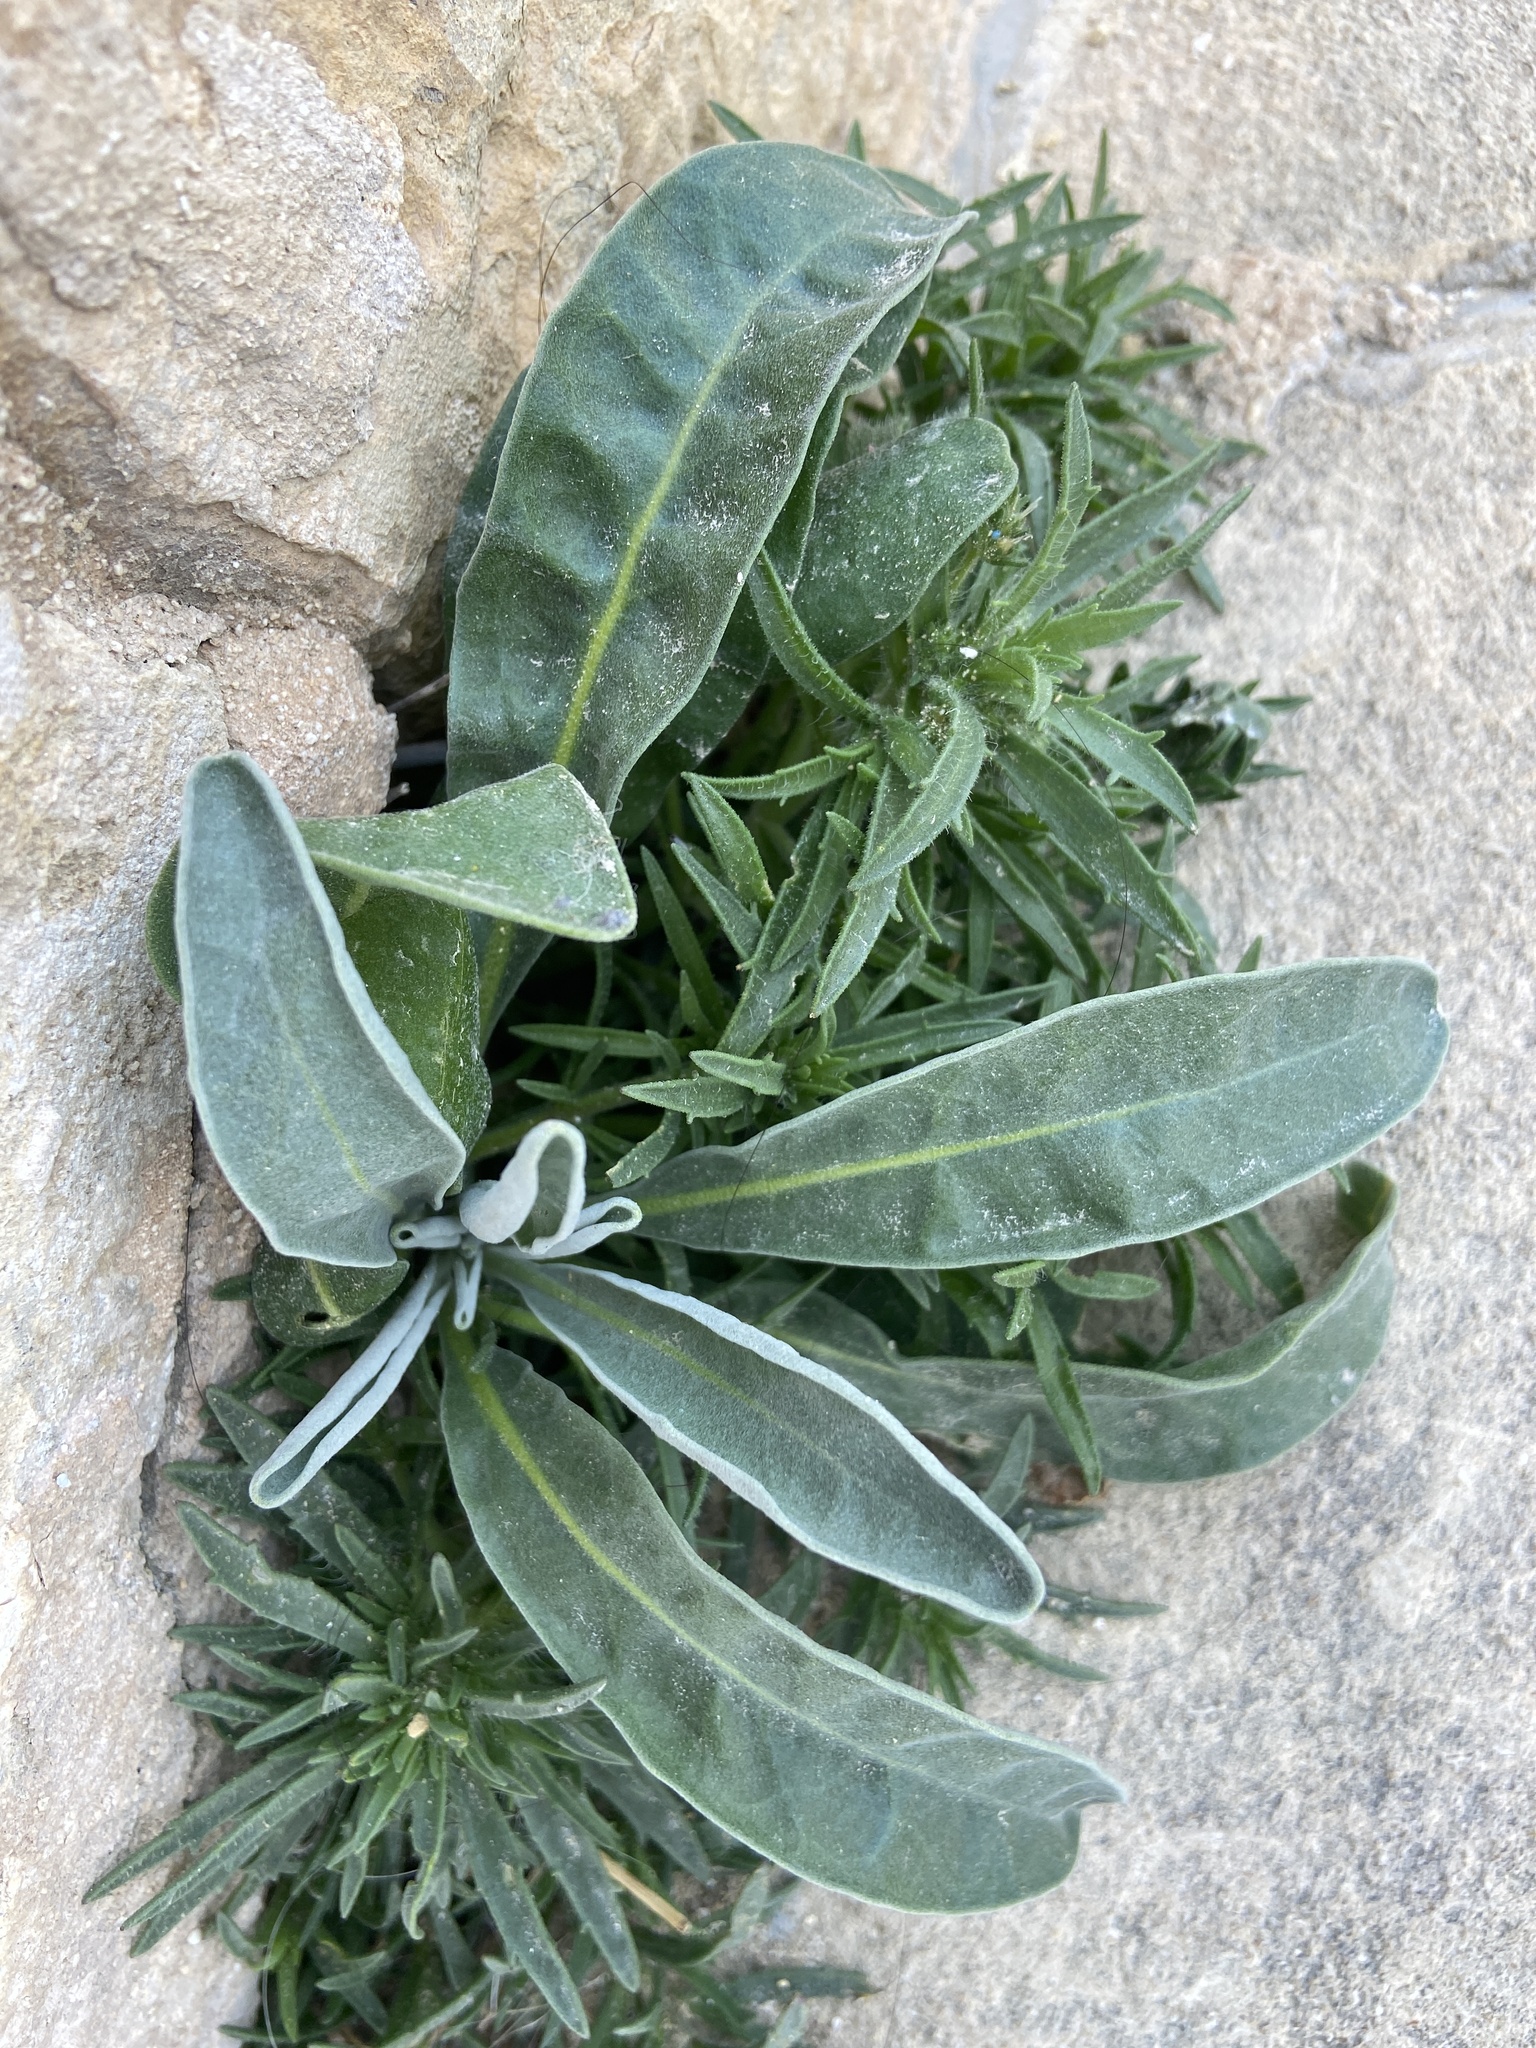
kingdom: Plantae
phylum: Tracheophyta
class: Magnoliopsida
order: Brassicales
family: Brassicaceae
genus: Matthiola
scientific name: Matthiola incana
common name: Hoary stock
